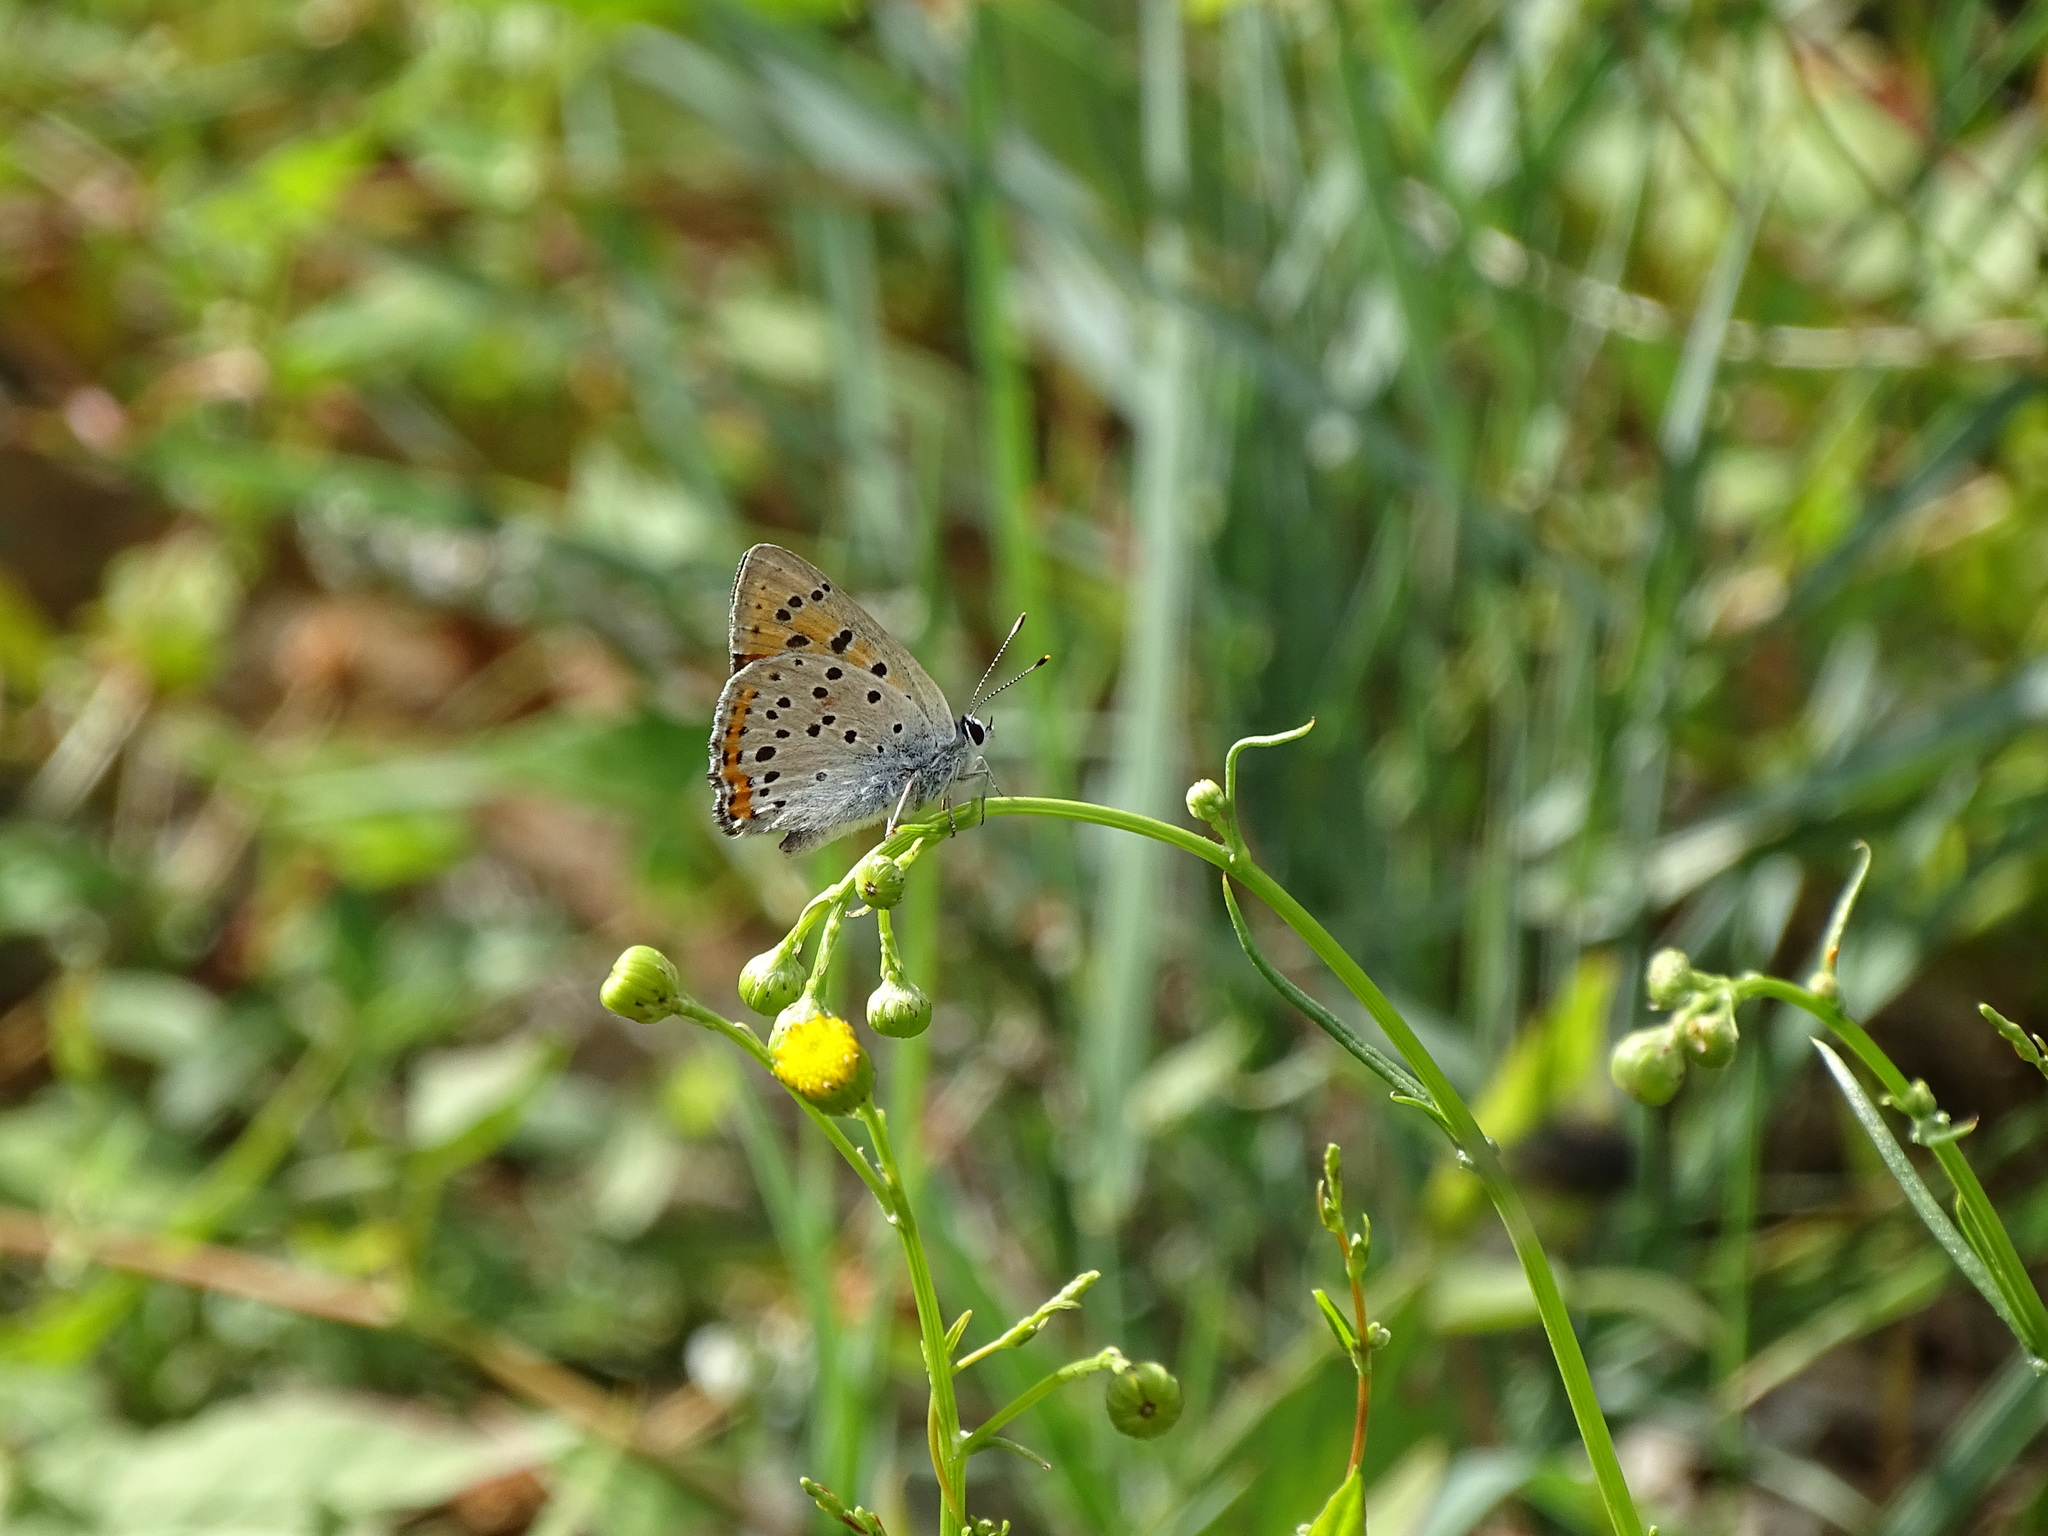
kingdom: Animalia
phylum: Arthropoda
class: Insecta
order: Lepidoptera
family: Lycaenidae
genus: Lycaena
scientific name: Lycaena alciphron
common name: Purple-shot copper
